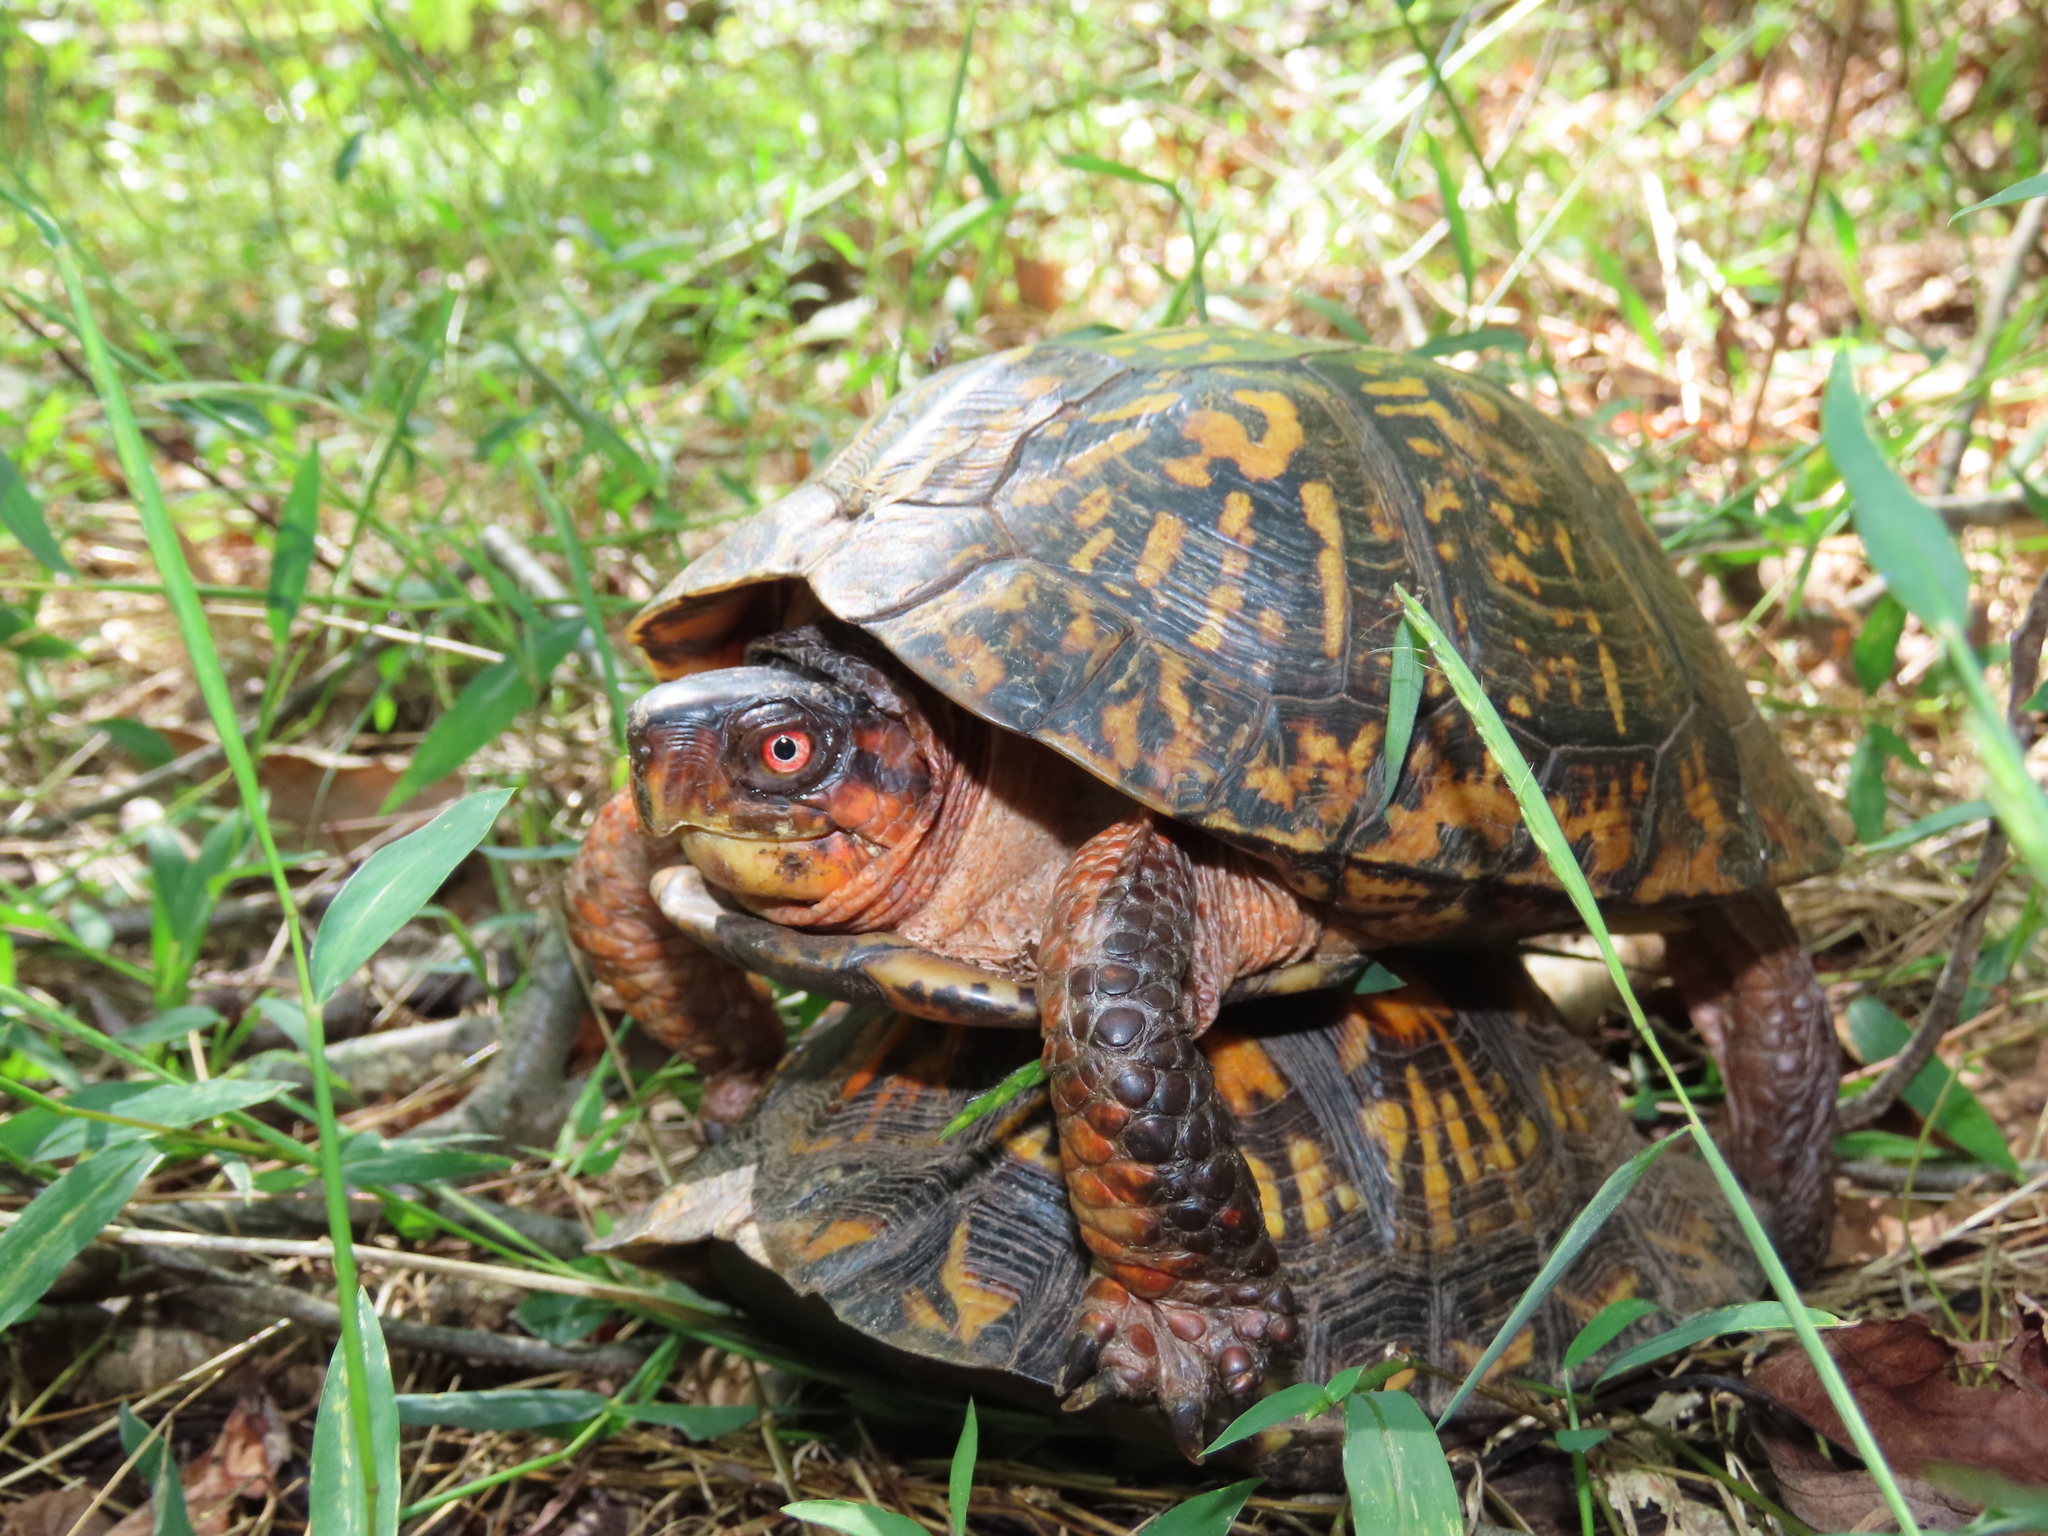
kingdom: Animalia
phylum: Chordata
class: Testudines
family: Emydidae
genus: Terrapene
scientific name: Terrapene carolina
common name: Common box turtle
